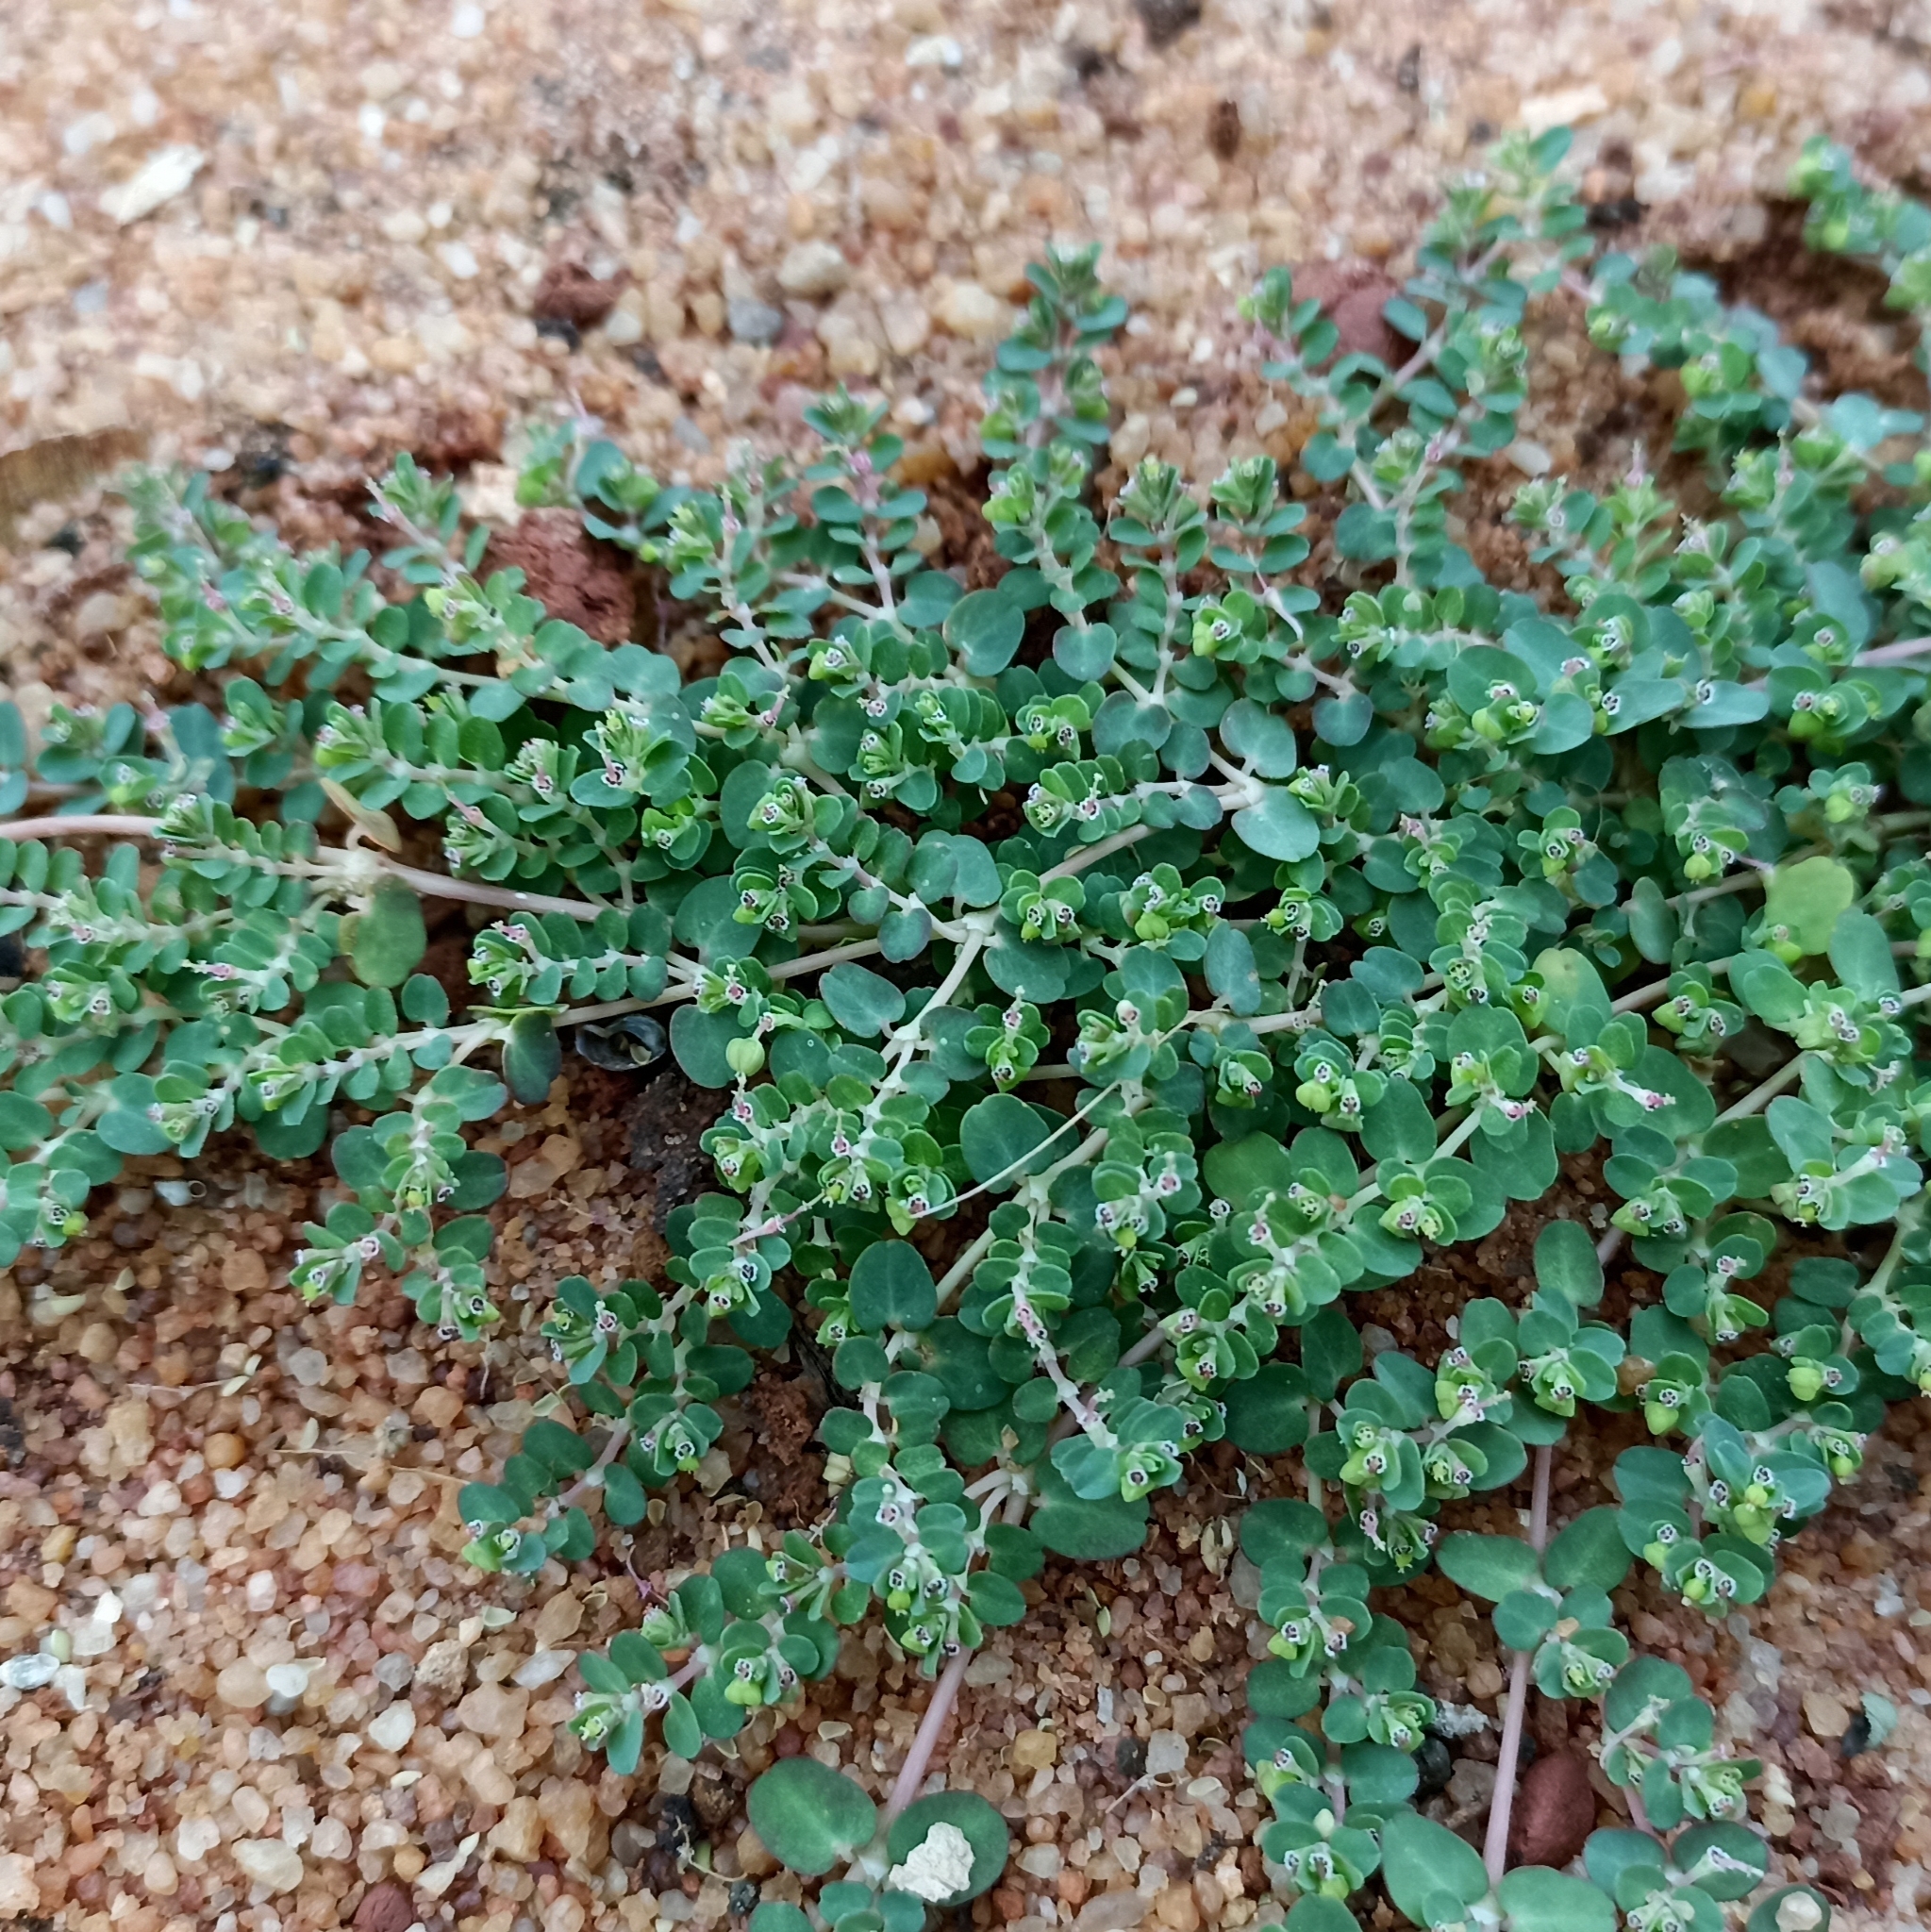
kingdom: Plantae
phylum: Tracheophyta
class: Magnoliopsida
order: Malpighiales
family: Euphorbiaceae
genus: Euphorbia
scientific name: Euphorbia serpens
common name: Matted sandmat
